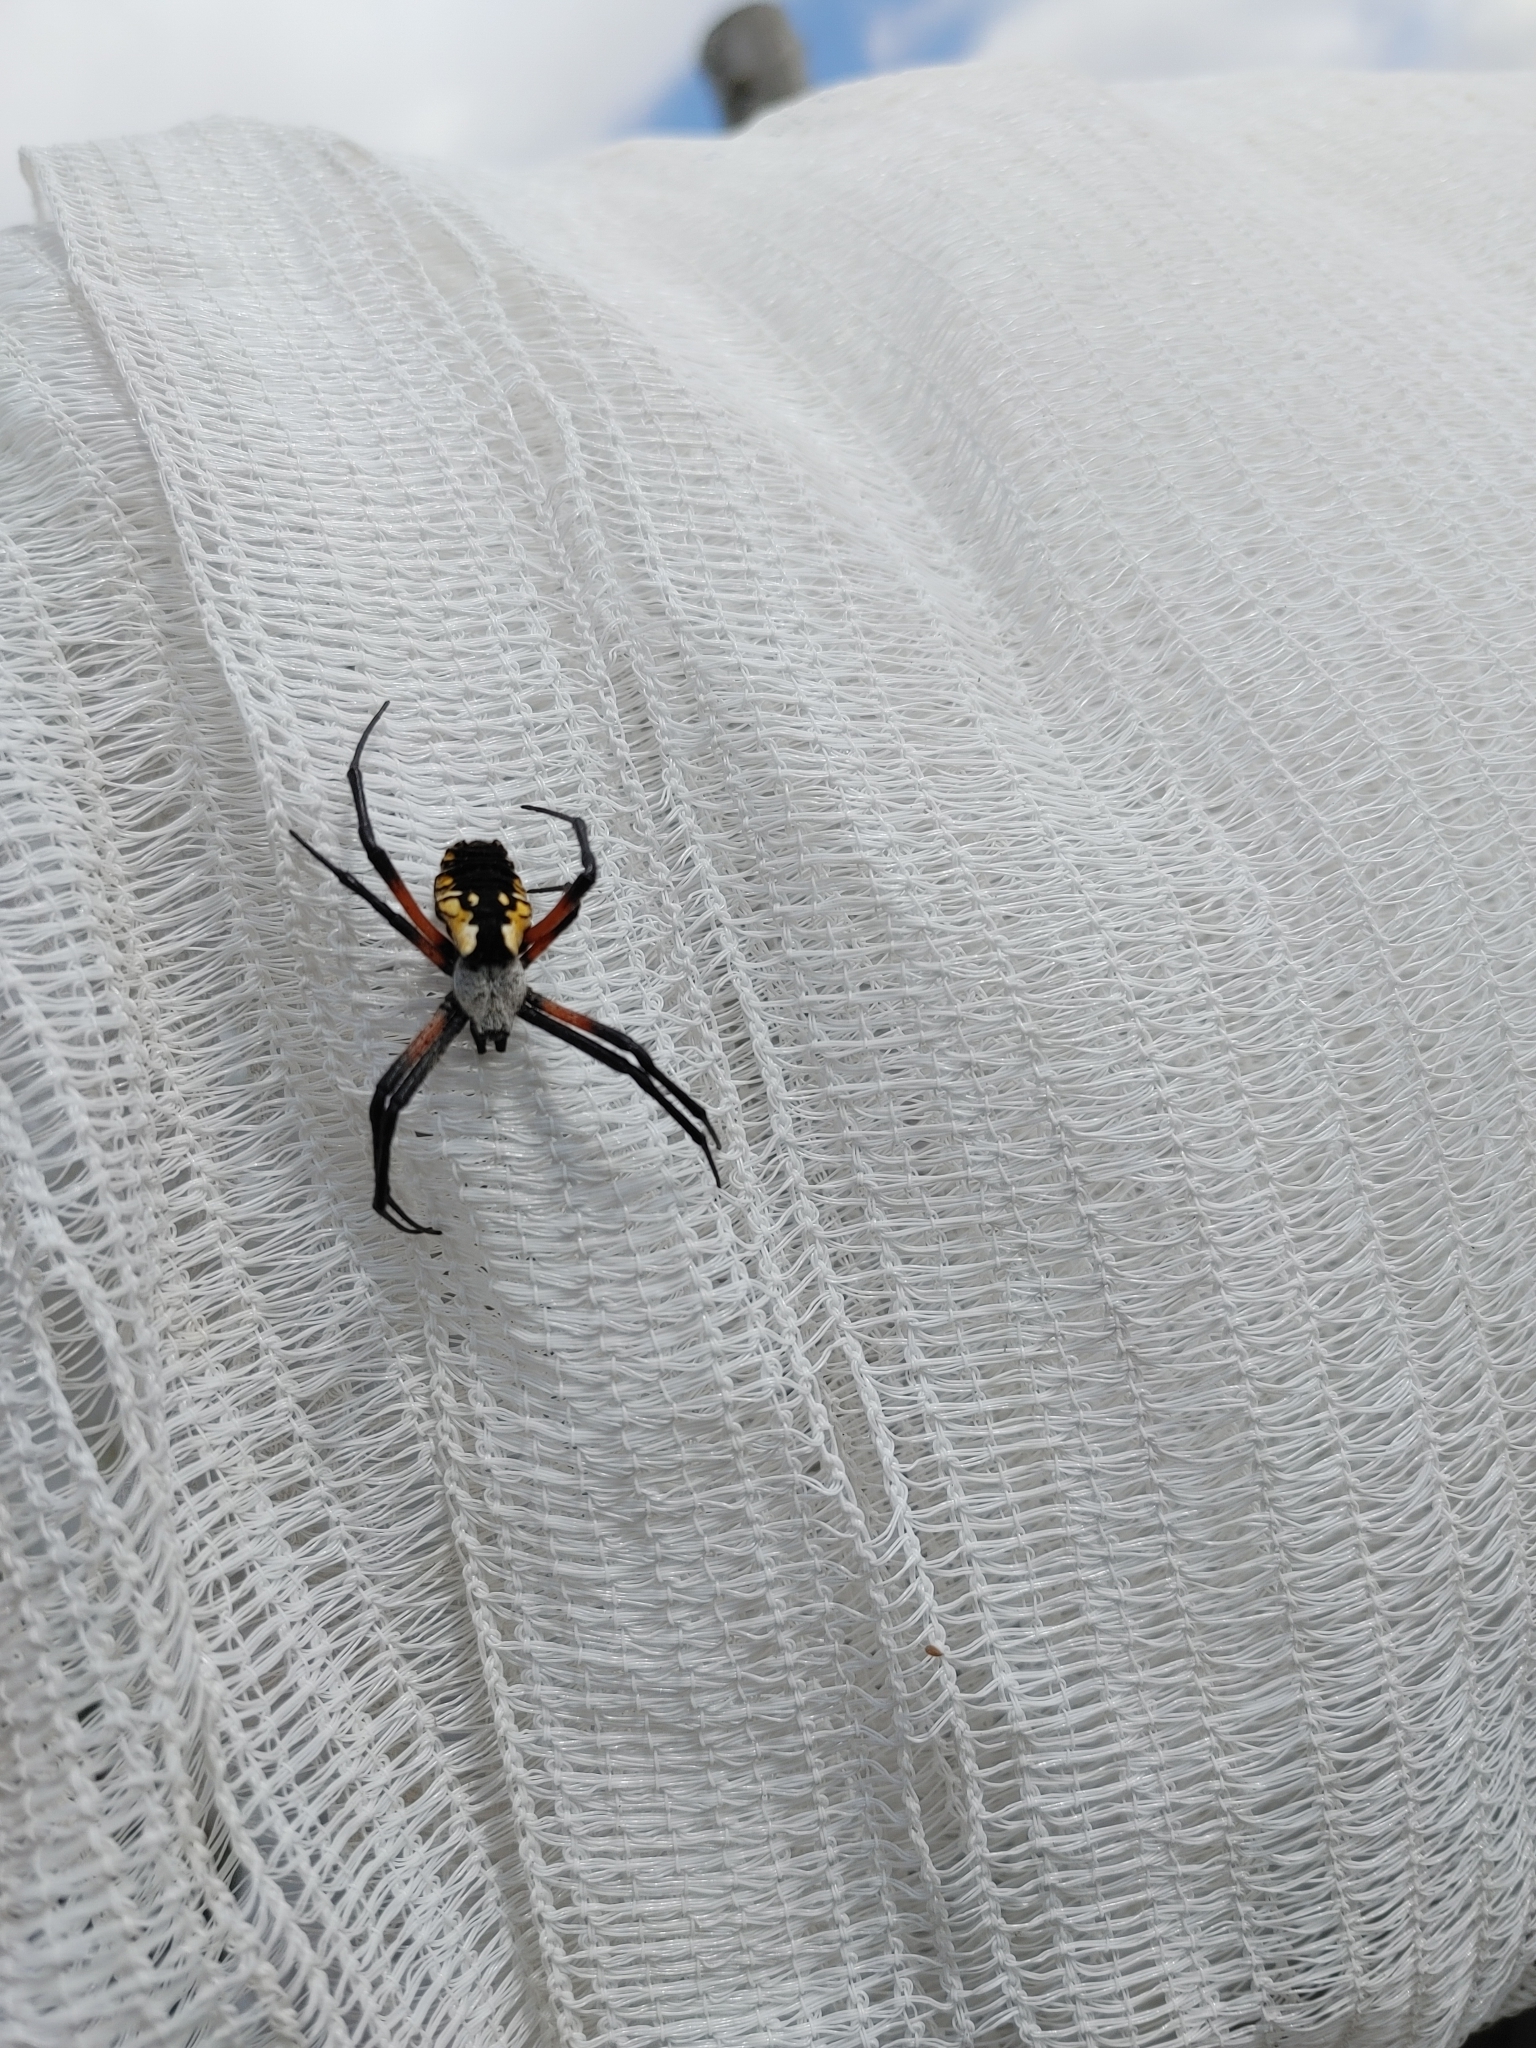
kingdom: Animalia
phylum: Arthropoda
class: Arachnida
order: Araneae
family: Araneidae
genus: Argiope
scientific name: Argiope aurantia
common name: Orb weavers
